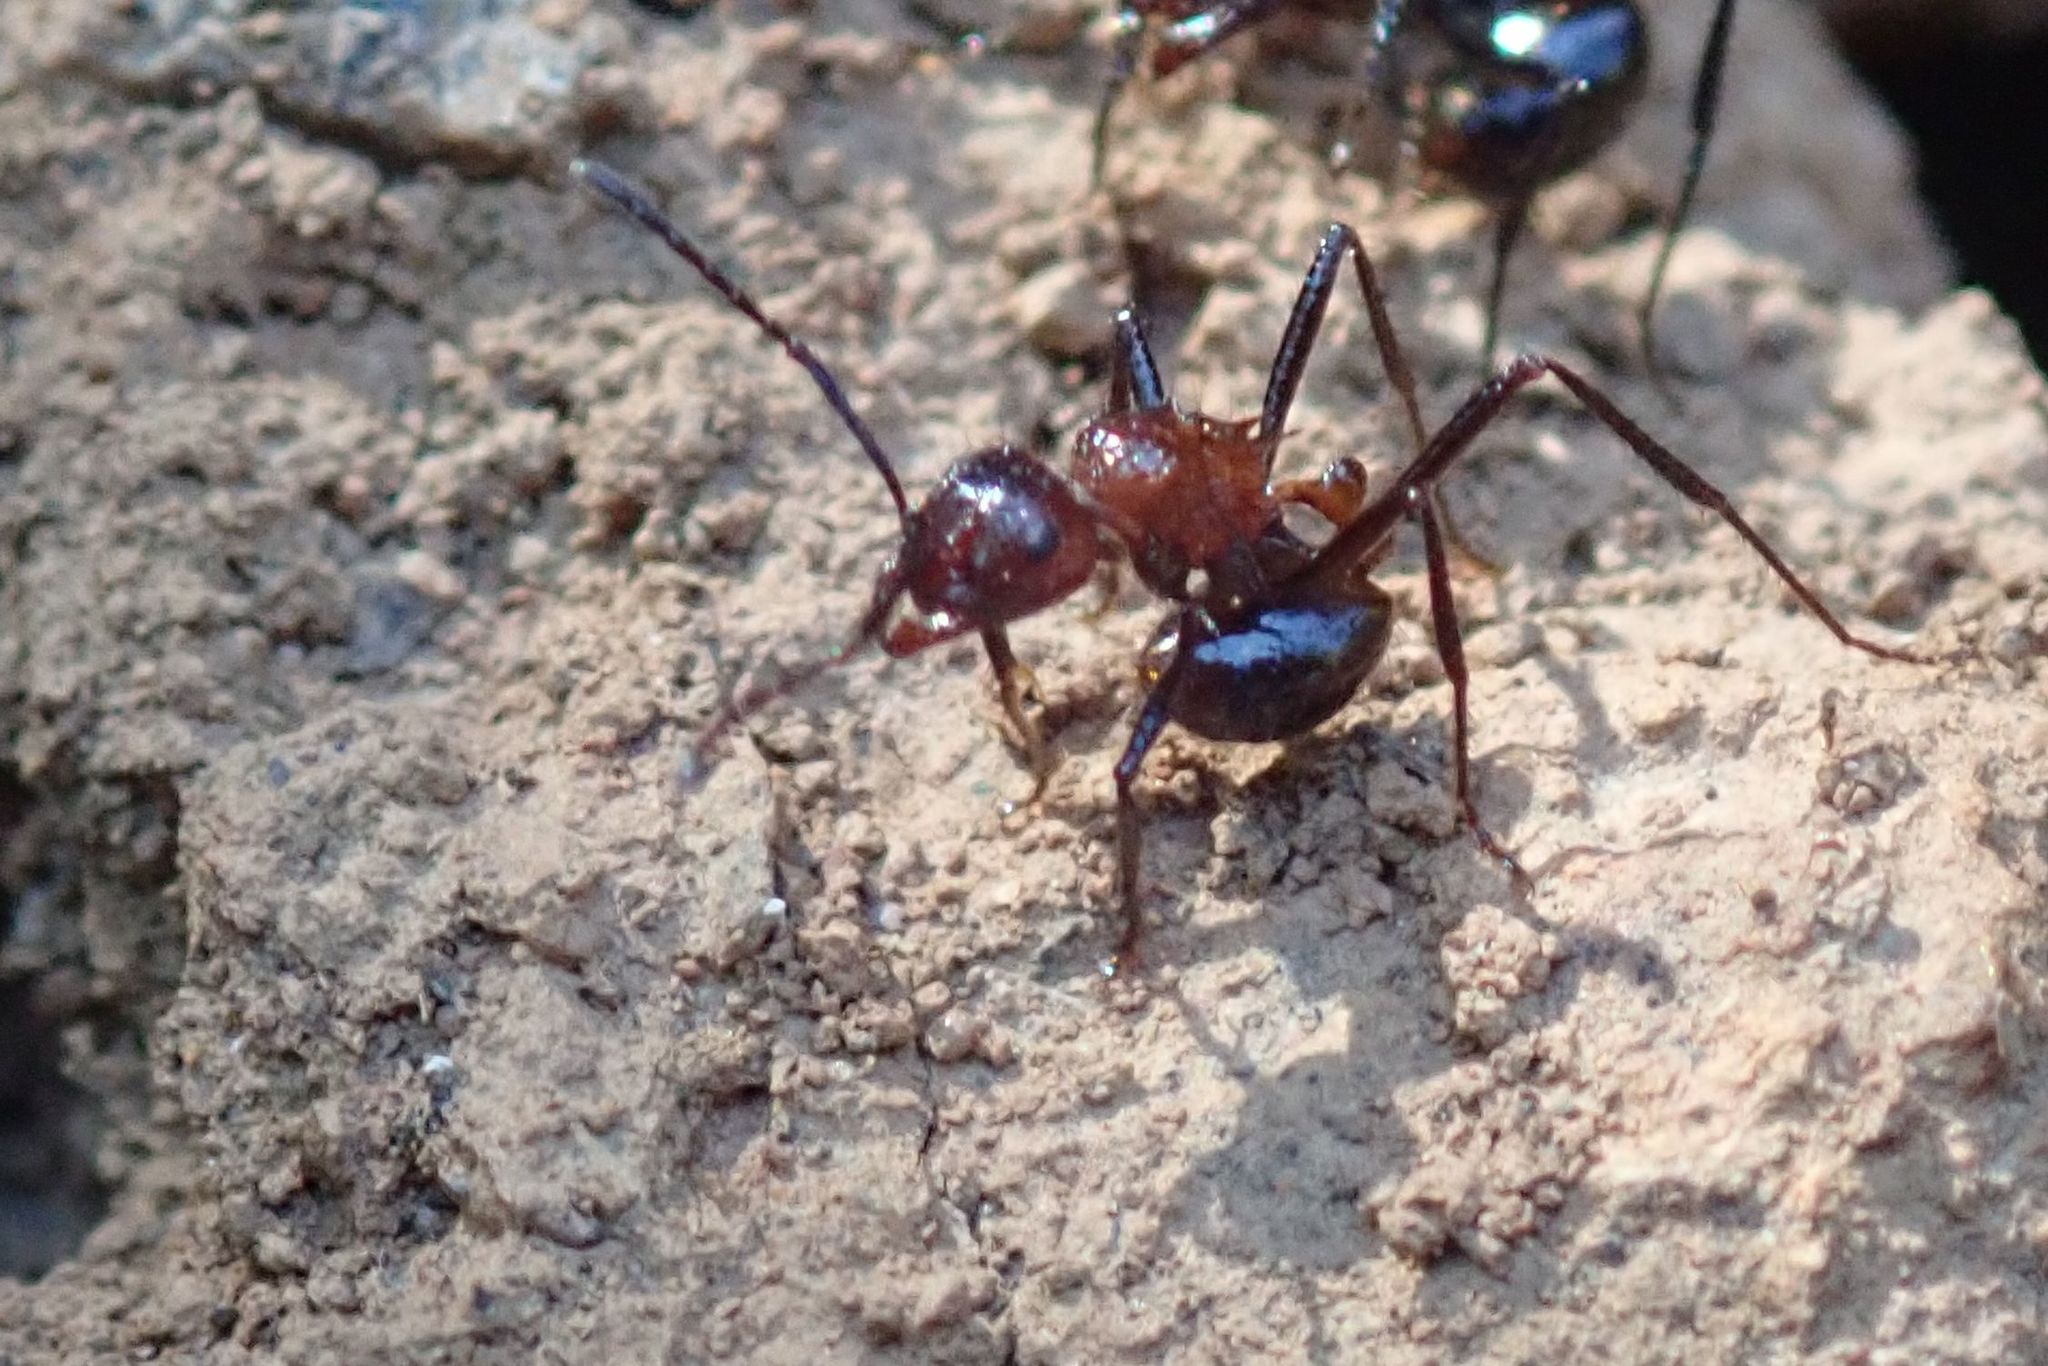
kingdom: Animalia
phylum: Arthropoda
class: Insecta
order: Hymenoptera
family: Formicidae
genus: Myrmicaria
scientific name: Myrmicaria natalensis
